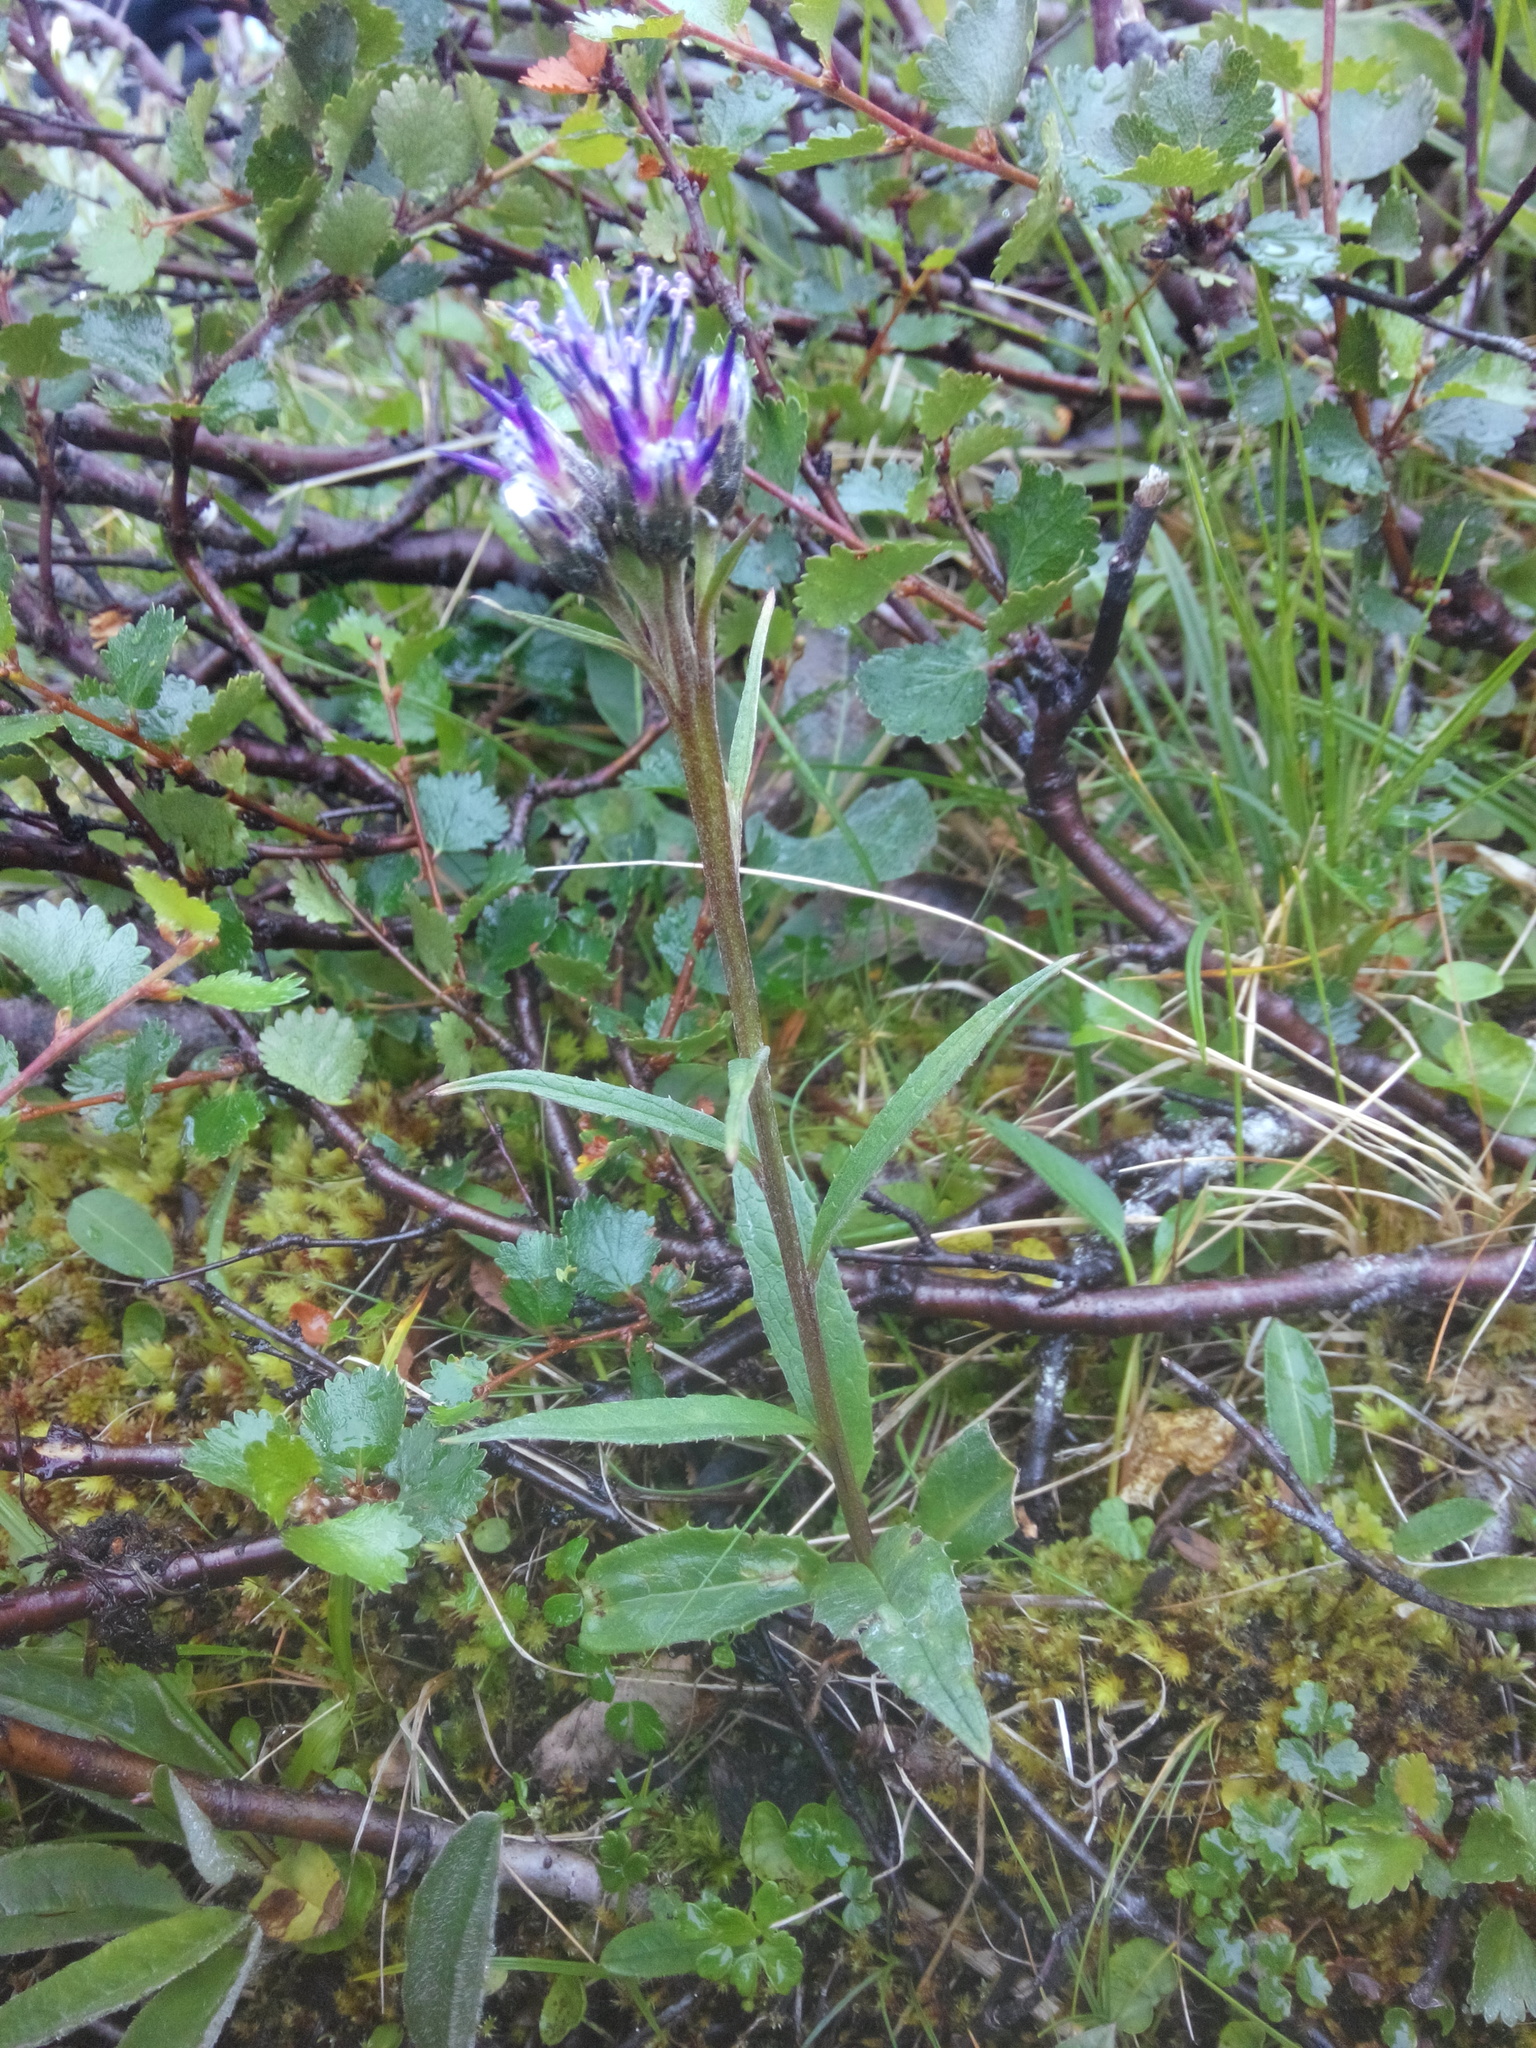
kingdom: Plantae
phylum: Tracheophyta
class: Magnoliopsida
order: Asterales
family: Asteraceae
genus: Saussurea
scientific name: Saussurea alpina
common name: Alpine saw-wort
